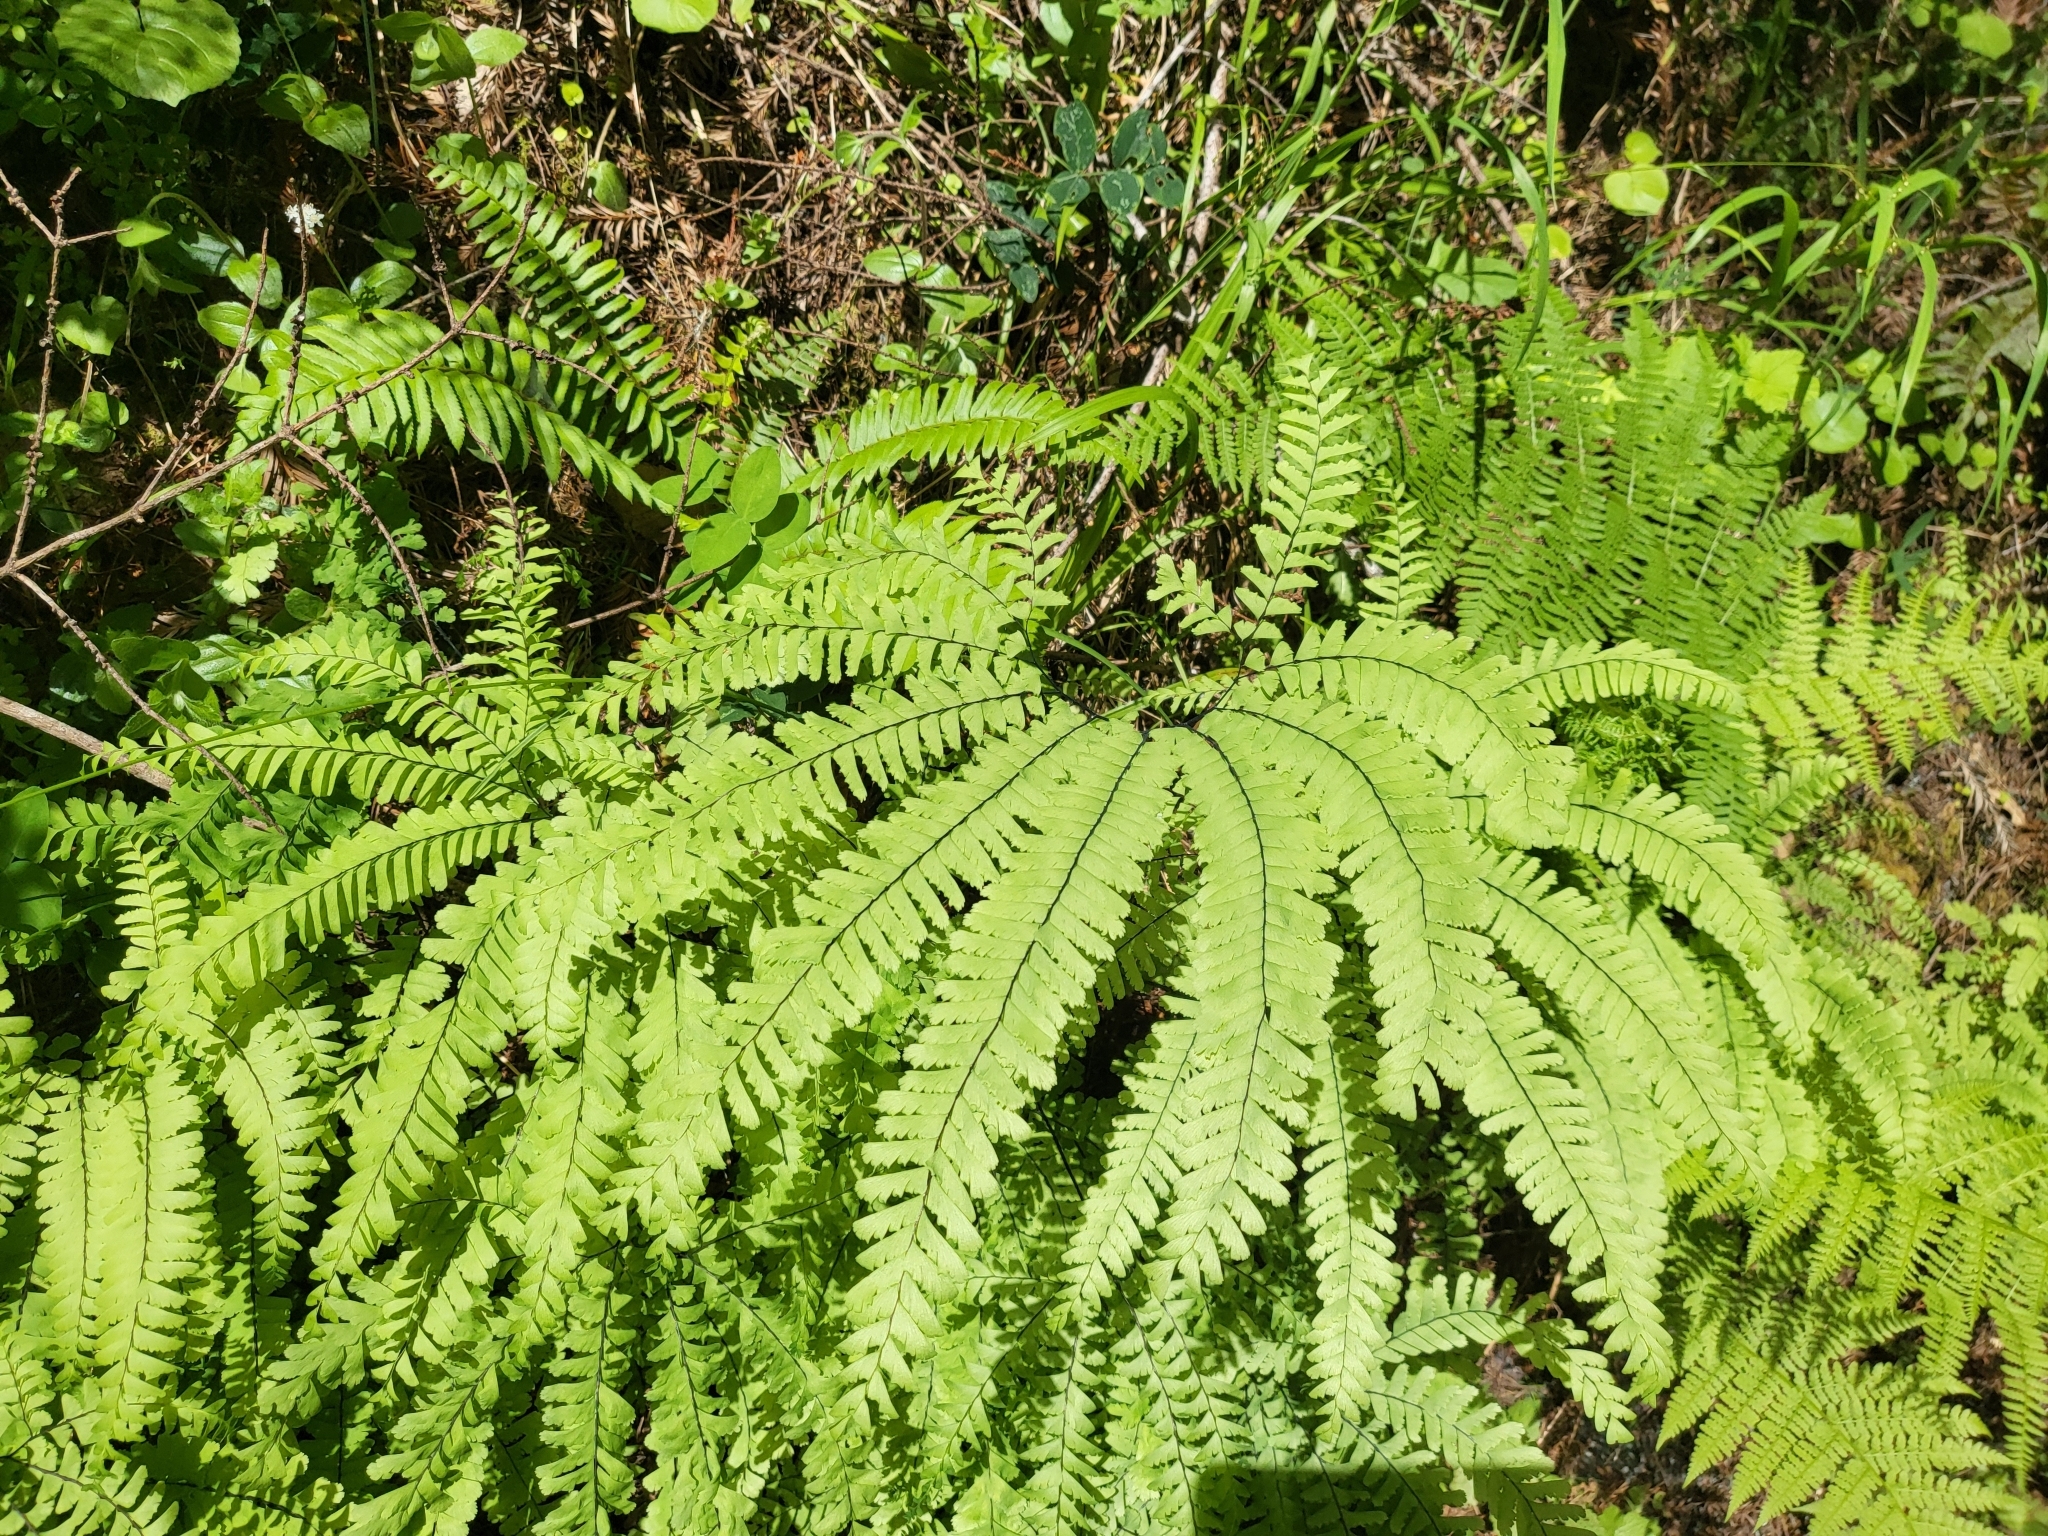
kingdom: Plantae
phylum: Tracheophyta
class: Polypodiopsida
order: Polypodiales
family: Pteridaceae
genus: Adiantum
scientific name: Adiantum aleuticum
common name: Aleutian maidenhair fern
